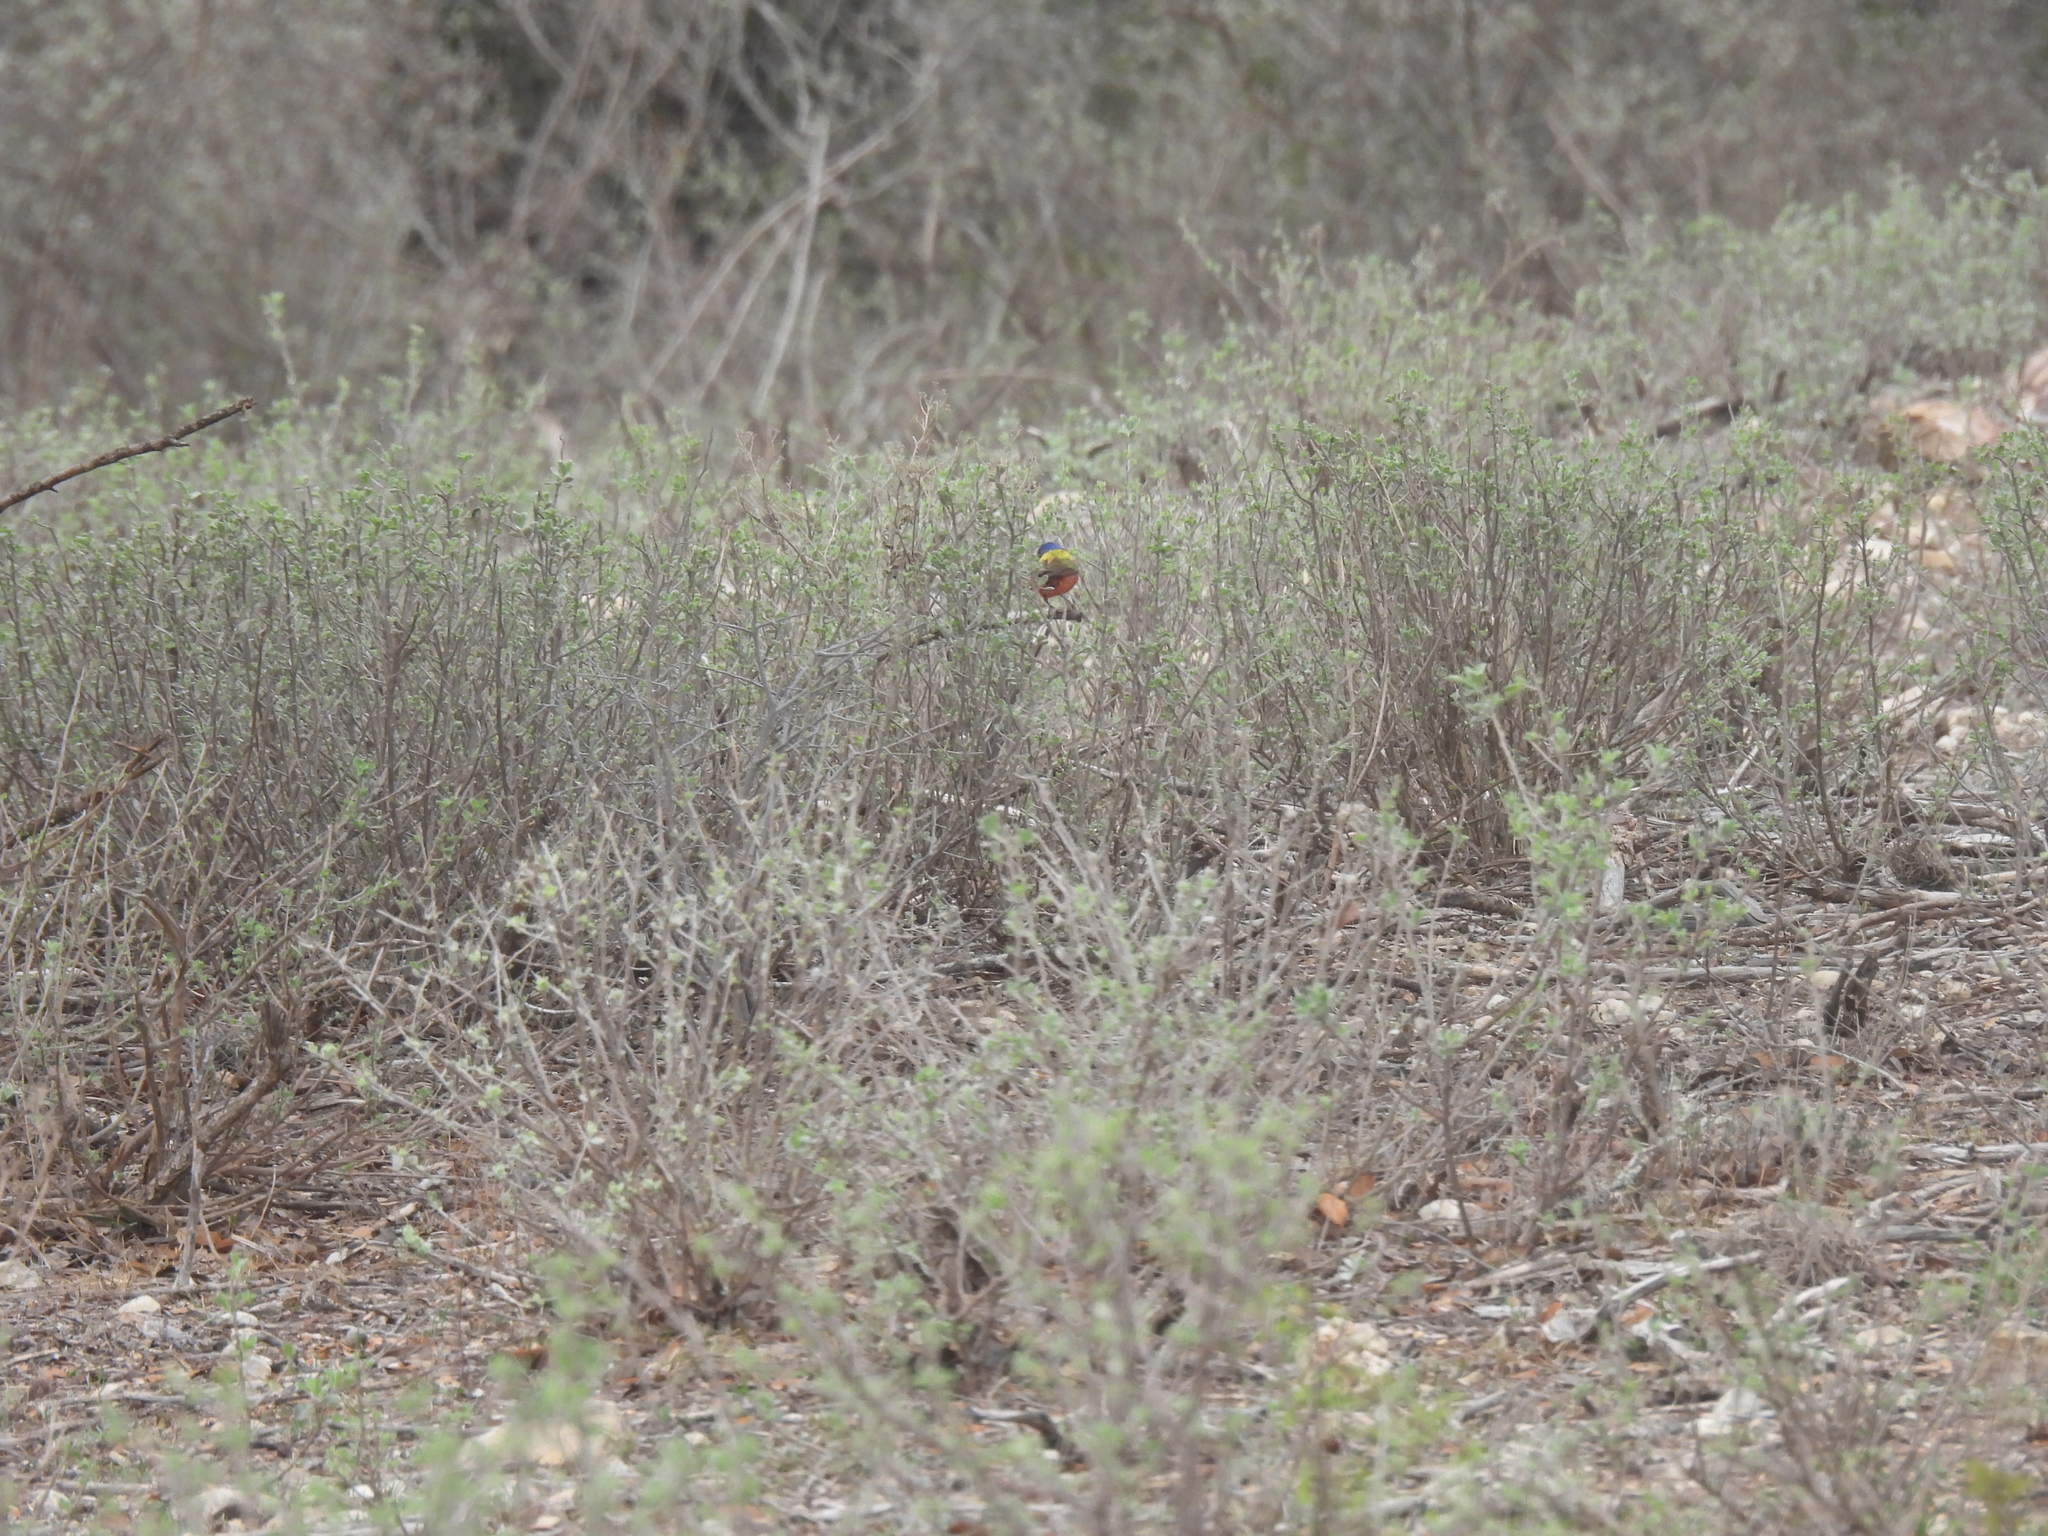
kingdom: Animalia
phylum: Chordata
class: Aves
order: Passeriformes
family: Cardinalidae
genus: Passerina
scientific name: Passerina ciris
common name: Painted bunting
